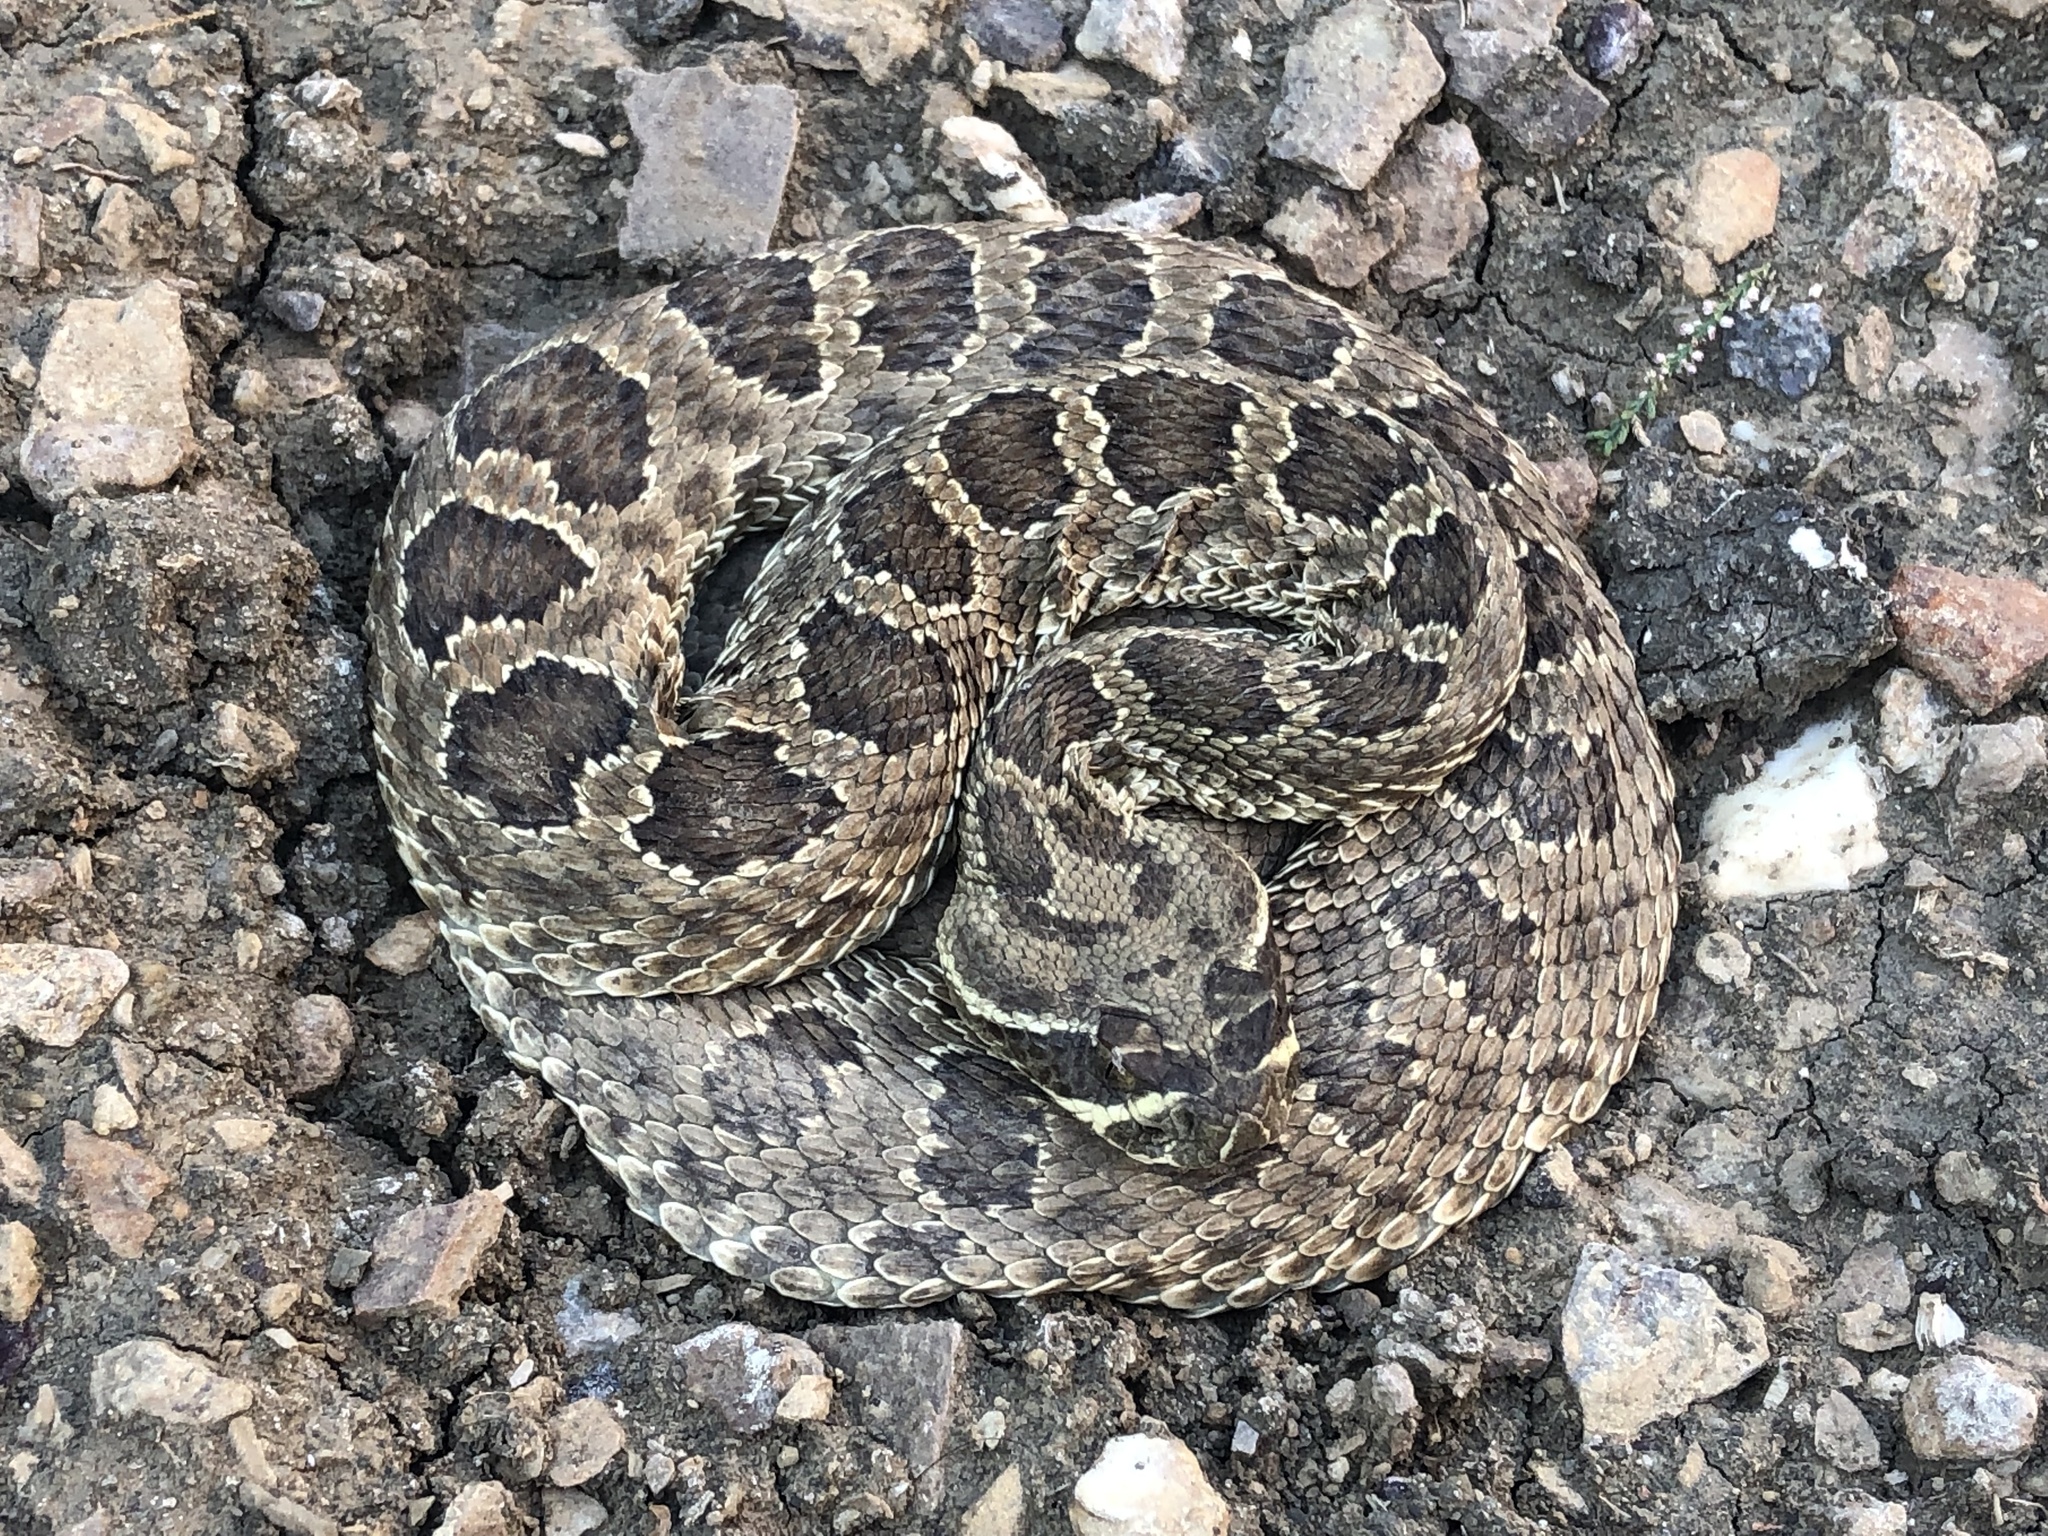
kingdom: Animalia
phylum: Chordata
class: Squamata
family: Viperidae
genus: Crotalus
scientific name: Crotalus viridis
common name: Prairie rattlesnake
